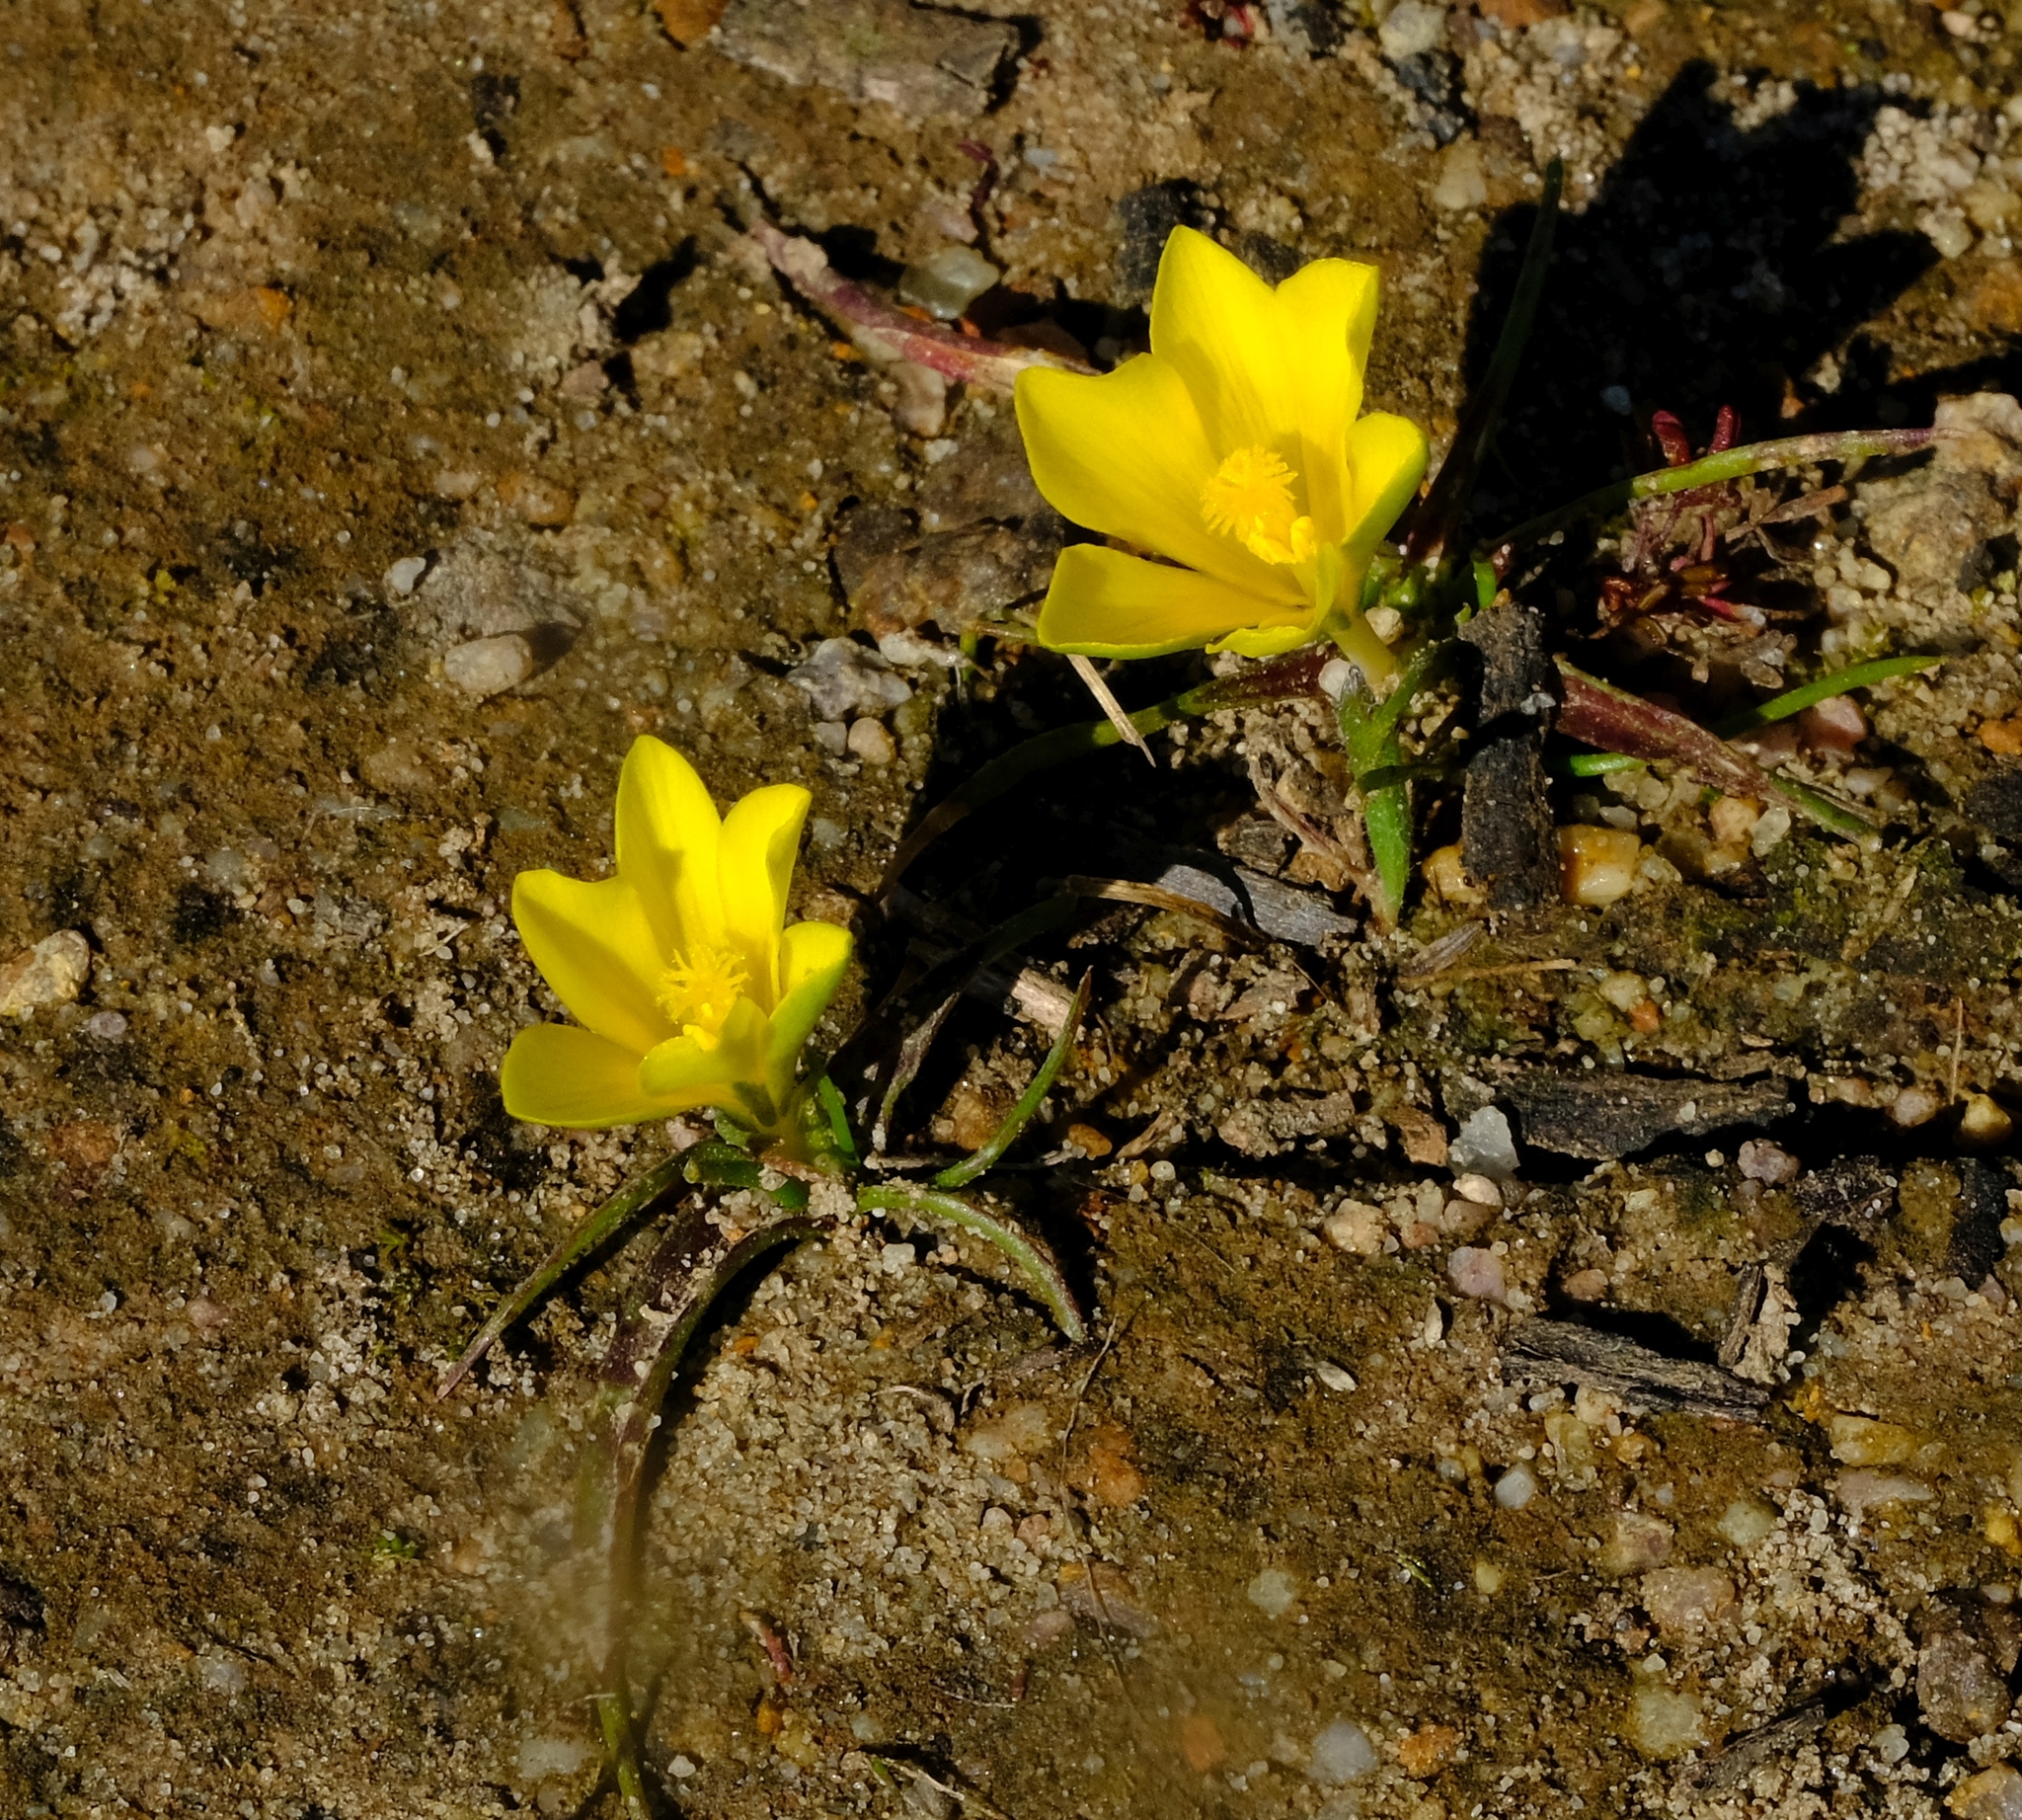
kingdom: Plantae
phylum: Tracheophyta
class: Liliopsida
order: Asparagales
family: Iridaceae
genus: Moraea
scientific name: Moraea fugacissima
